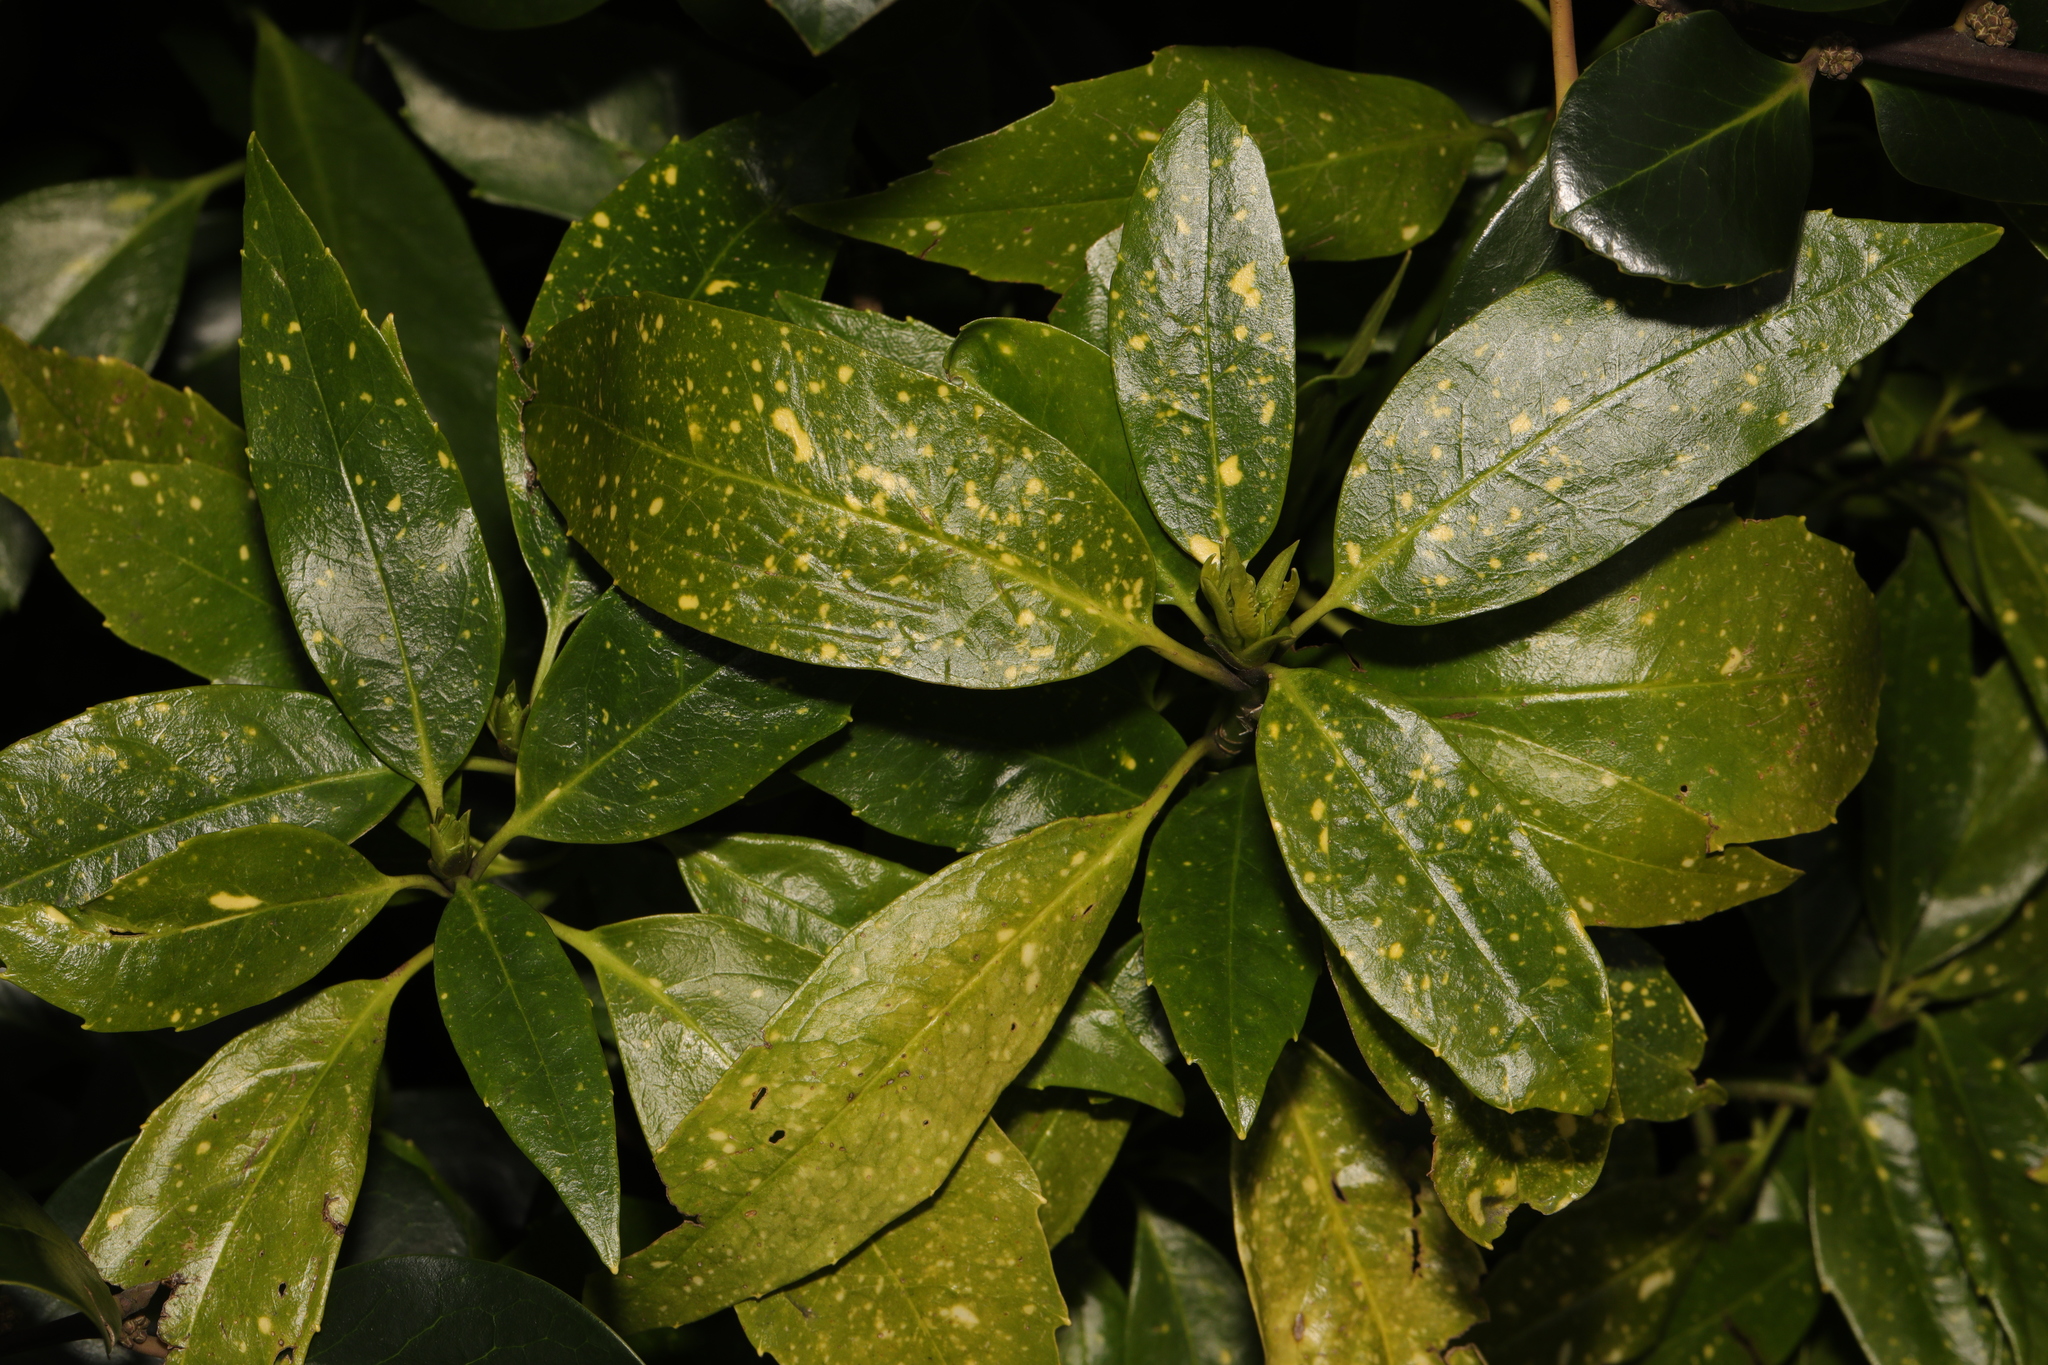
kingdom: Plantae
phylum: Tracheophyta
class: Magnoliopsida
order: Garryales
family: Garryaceae
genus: Aucuba
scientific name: Aucuba japonica
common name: Spotted-laurel
